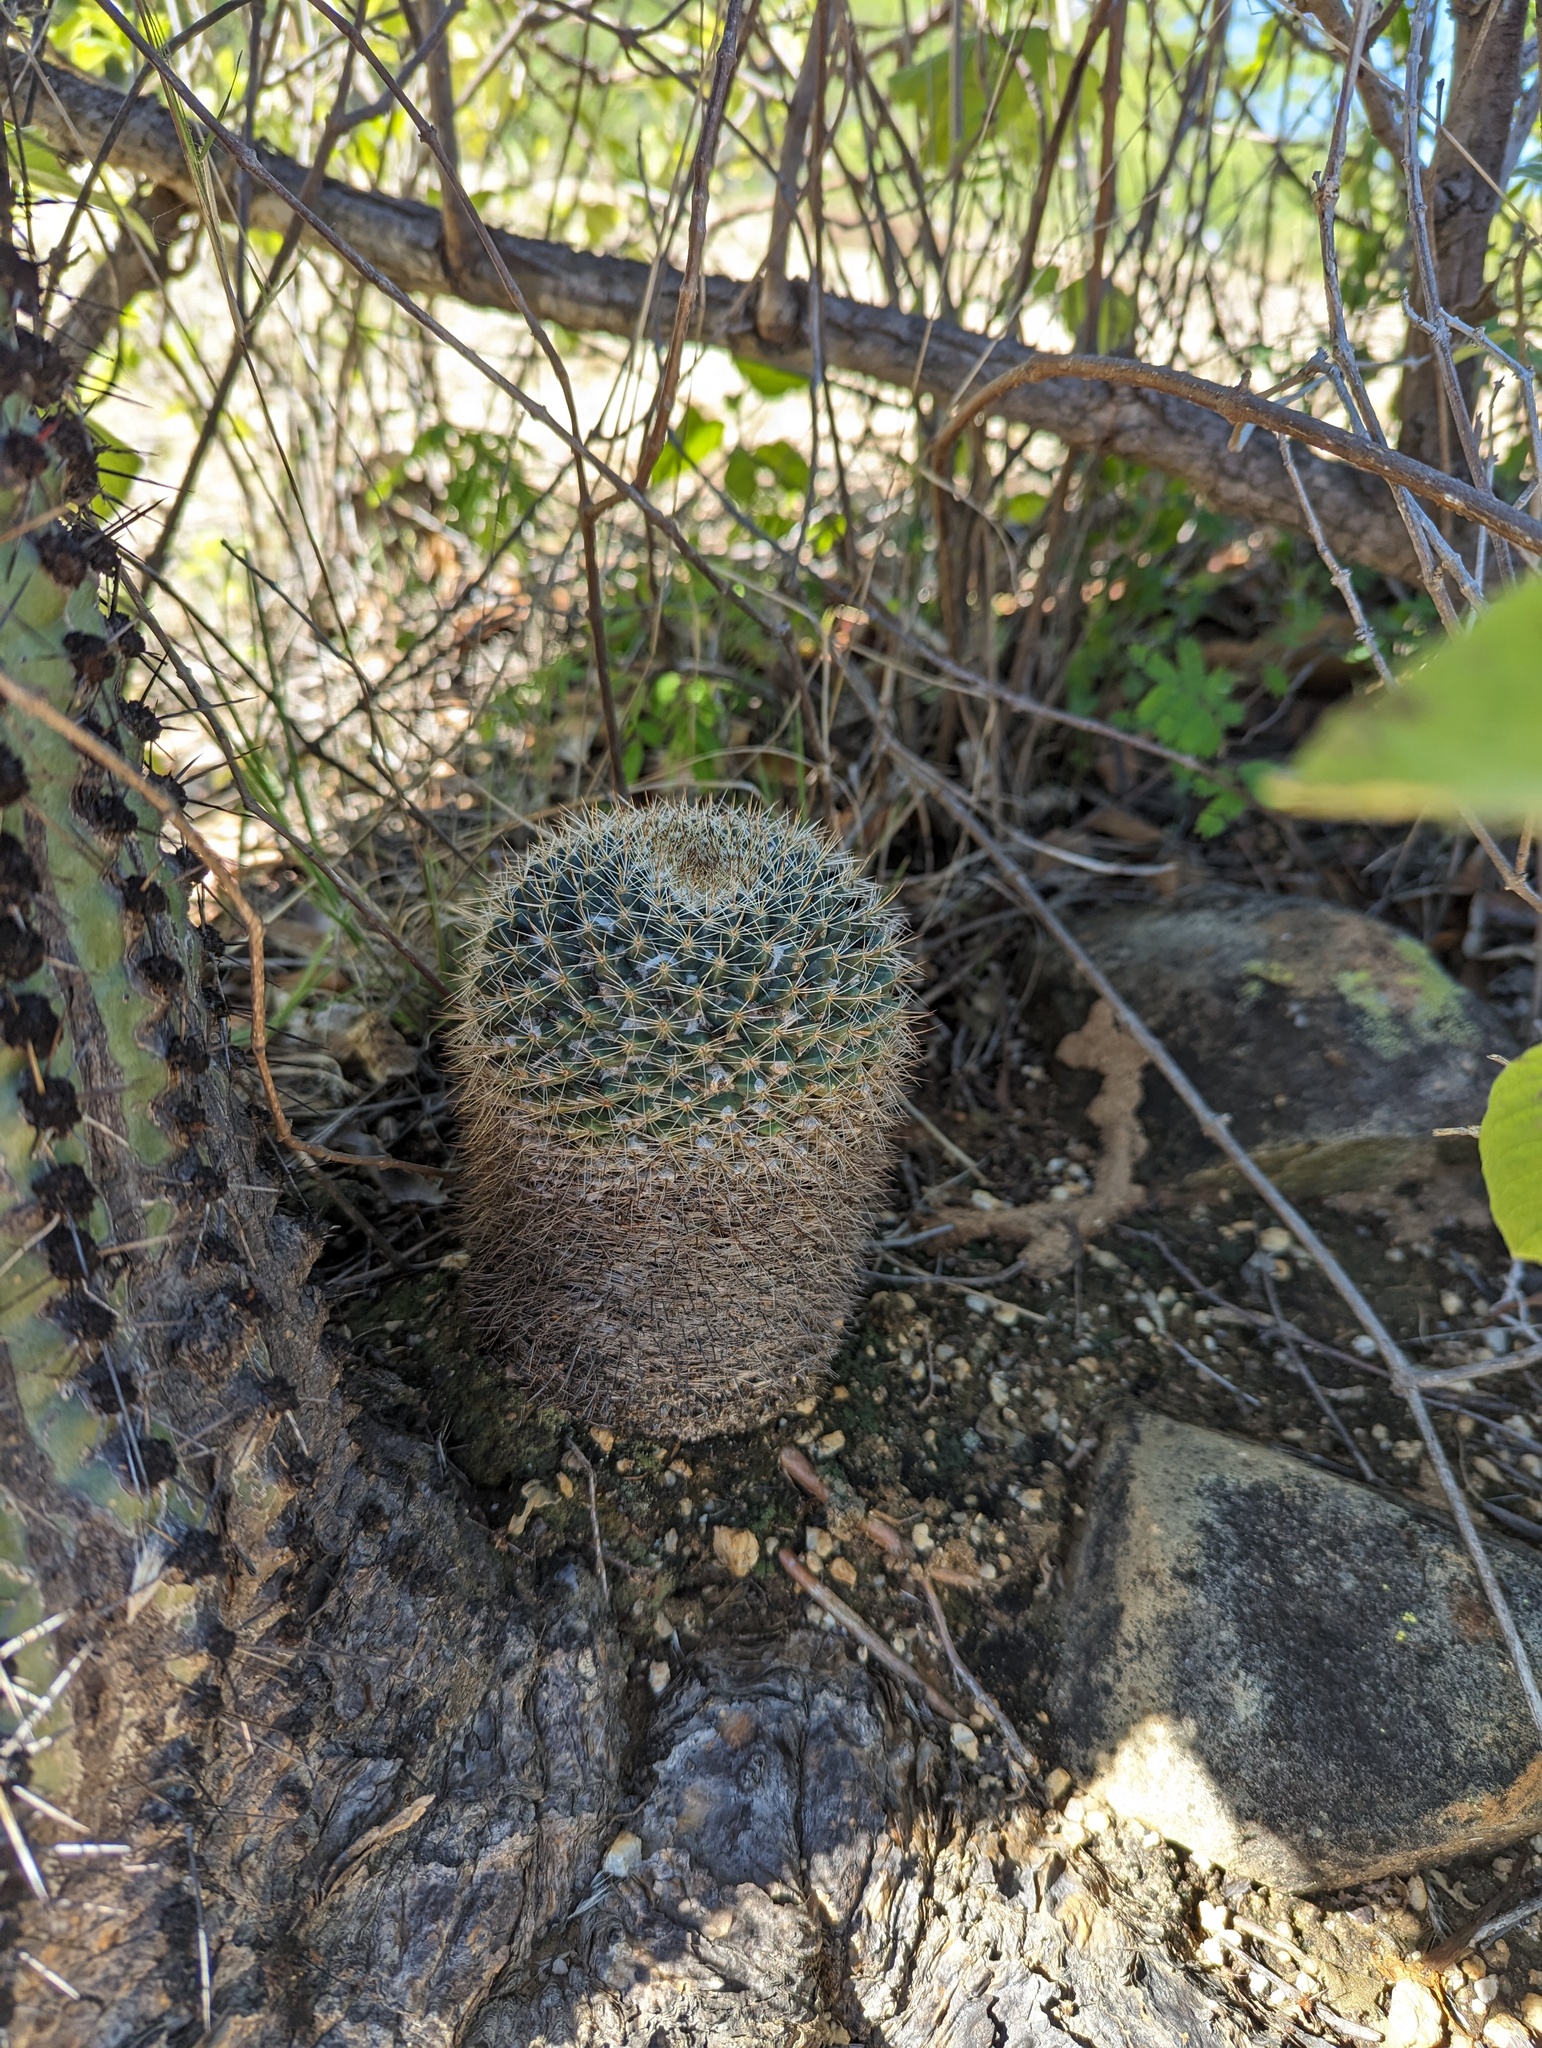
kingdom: Plantae
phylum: Tracheophyta
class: Magnoliopsida
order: Caryophyllales
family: Cactaceae
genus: Mammillaria
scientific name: Mammillaria petrophila
